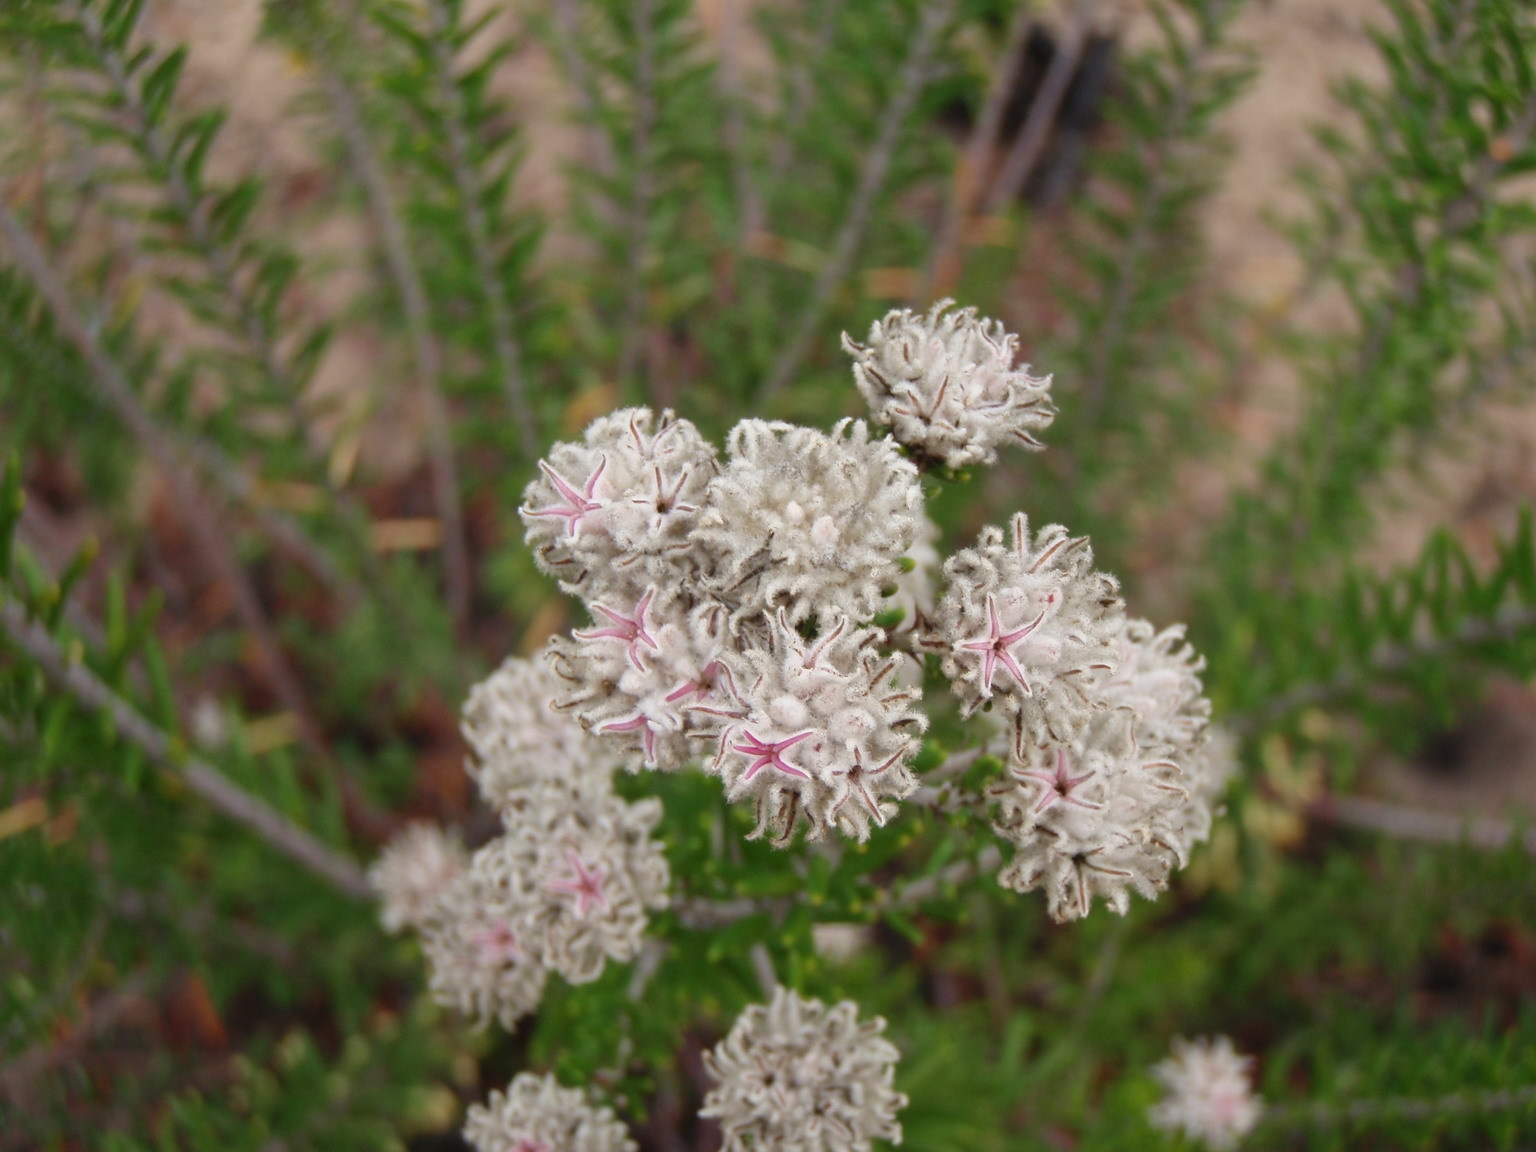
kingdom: Plantae
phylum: Tracheophyta
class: Magnoliopsida
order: Rosales
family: Rhamnaceae
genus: Trichocephalus
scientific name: Trichocephalus stipularis
